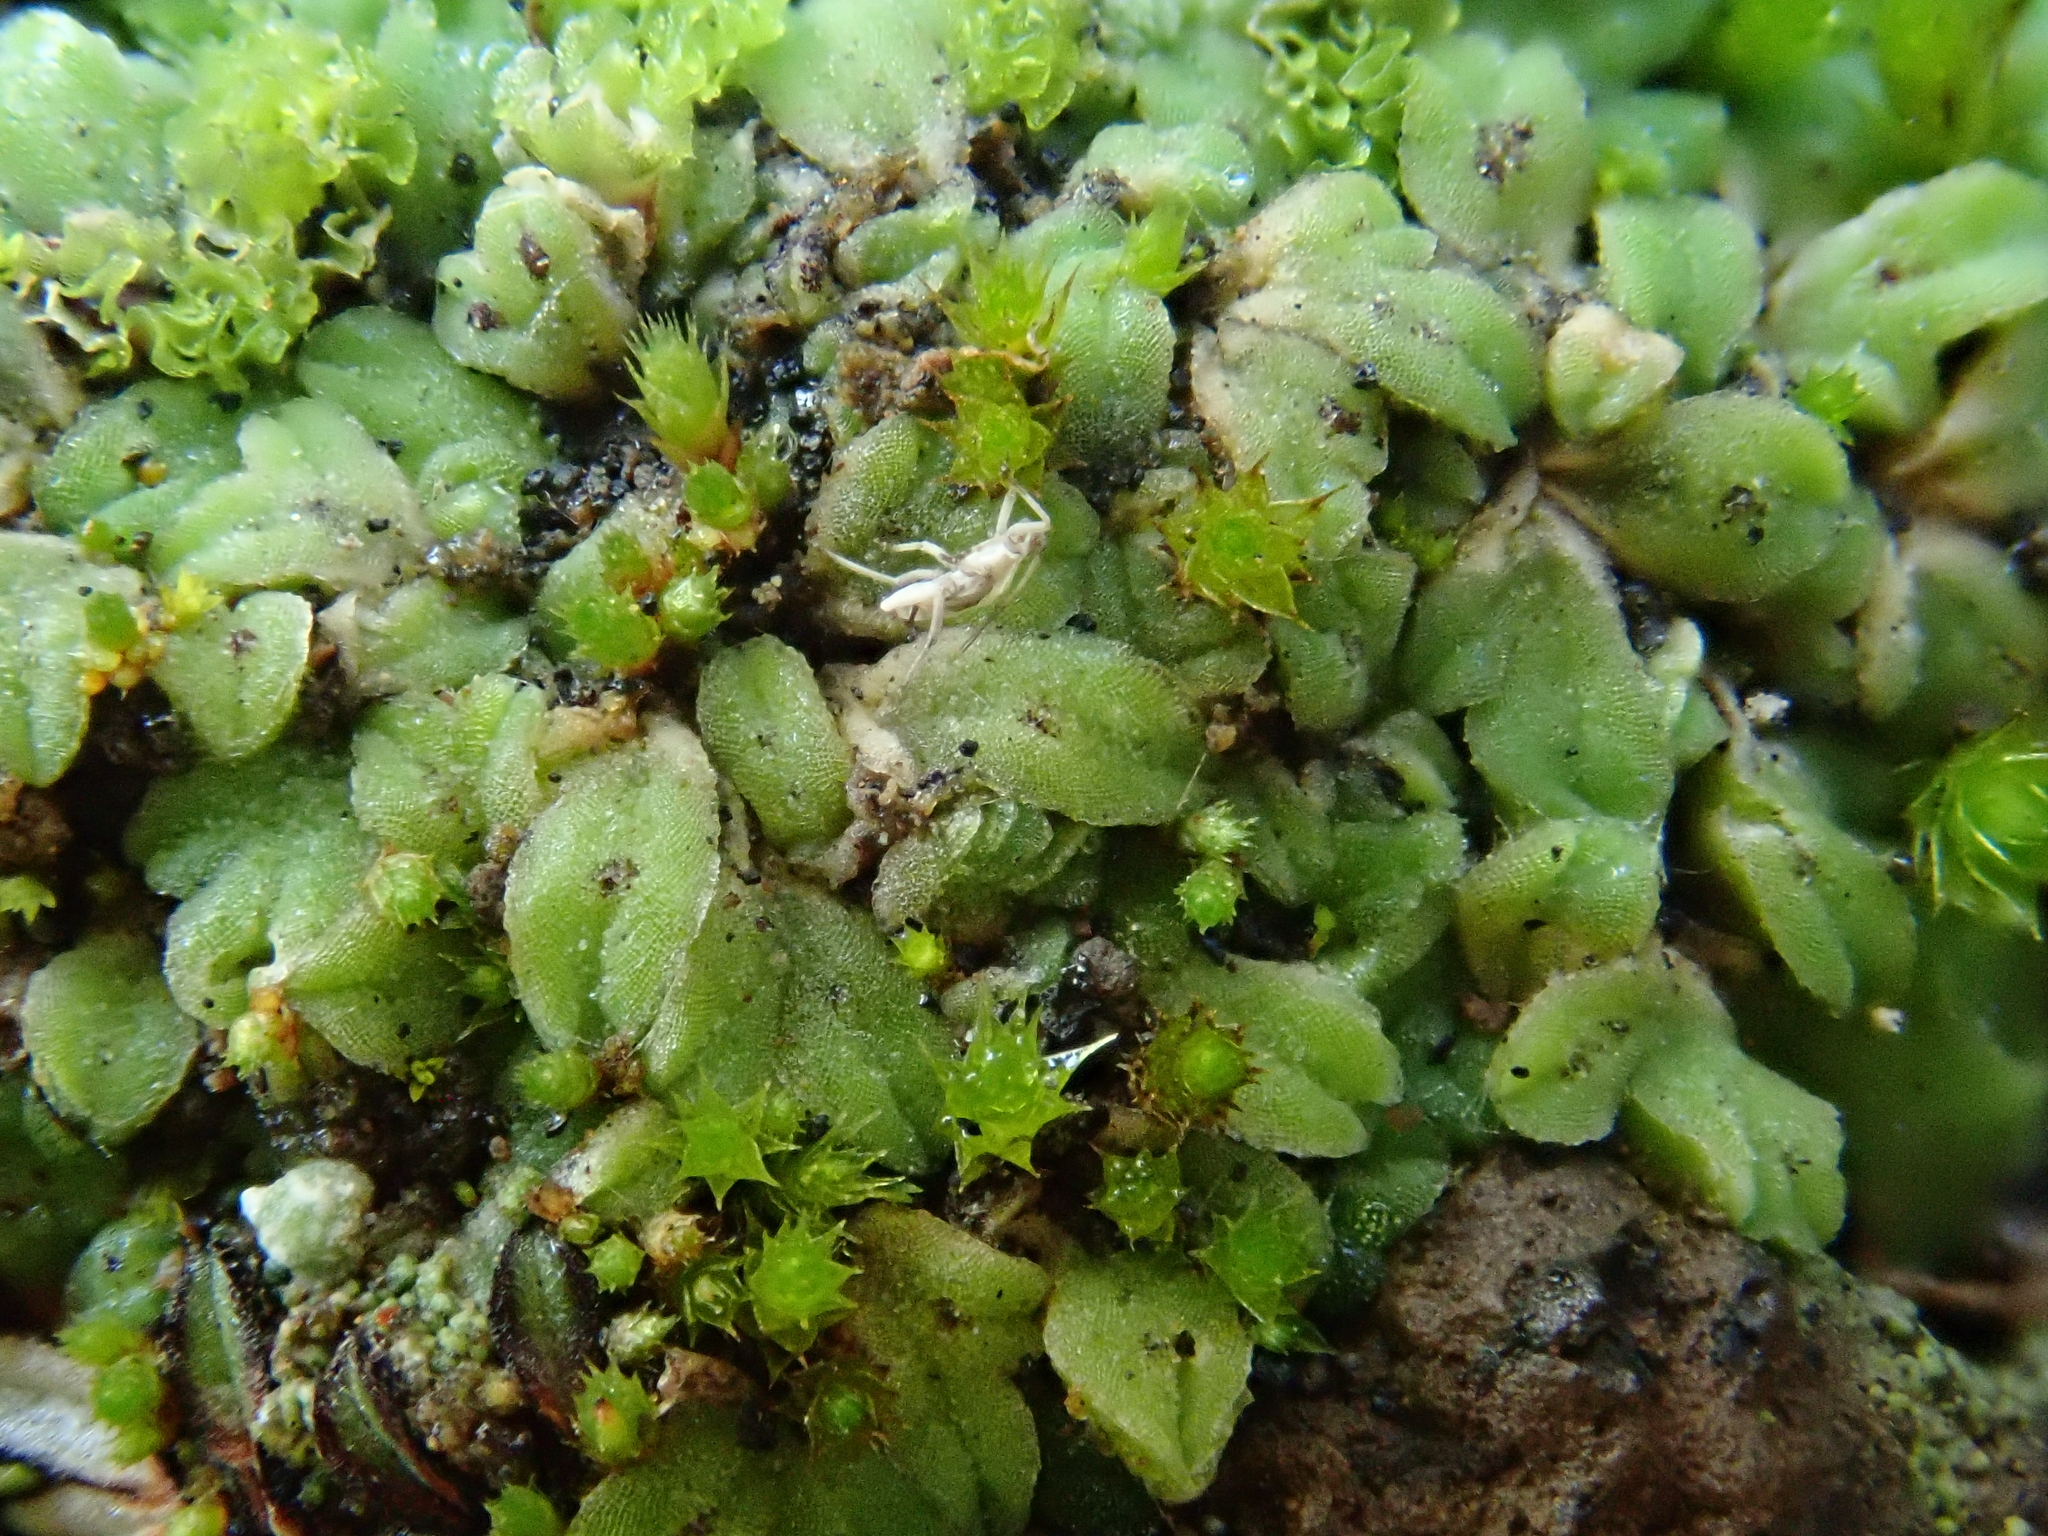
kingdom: Plantae
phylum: Marchantiophyta
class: Marchantiopsida
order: Marchantiales
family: Ricciaceae
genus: Riccia
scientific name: Riccia sorocarpa
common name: Common crystalwort
